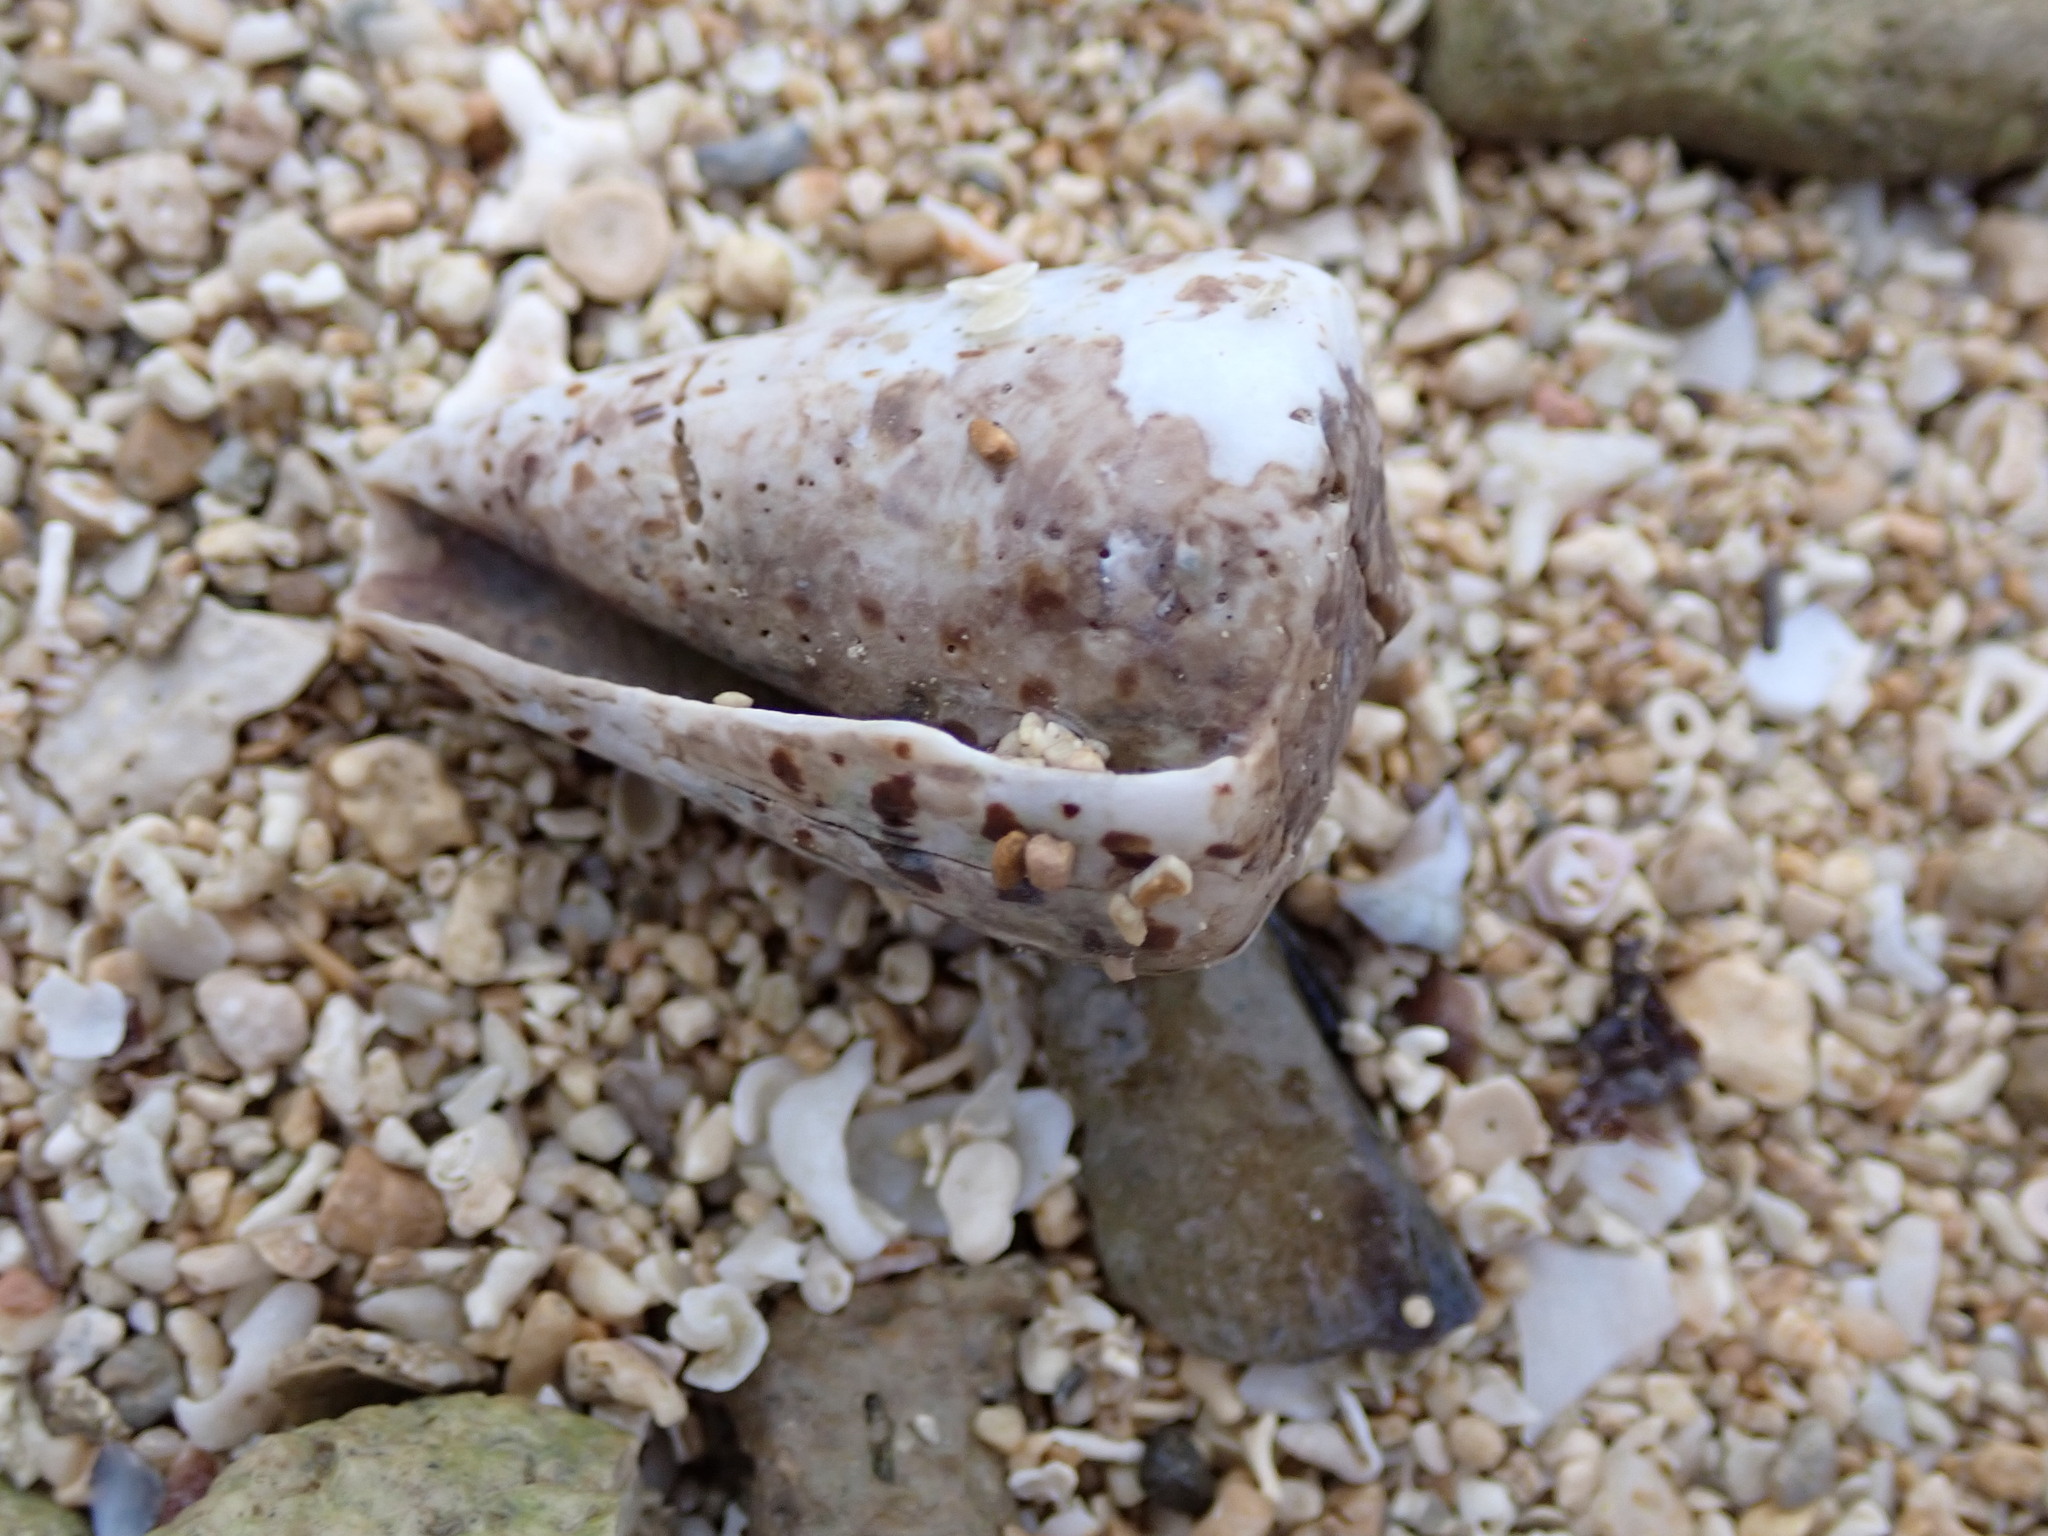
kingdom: Animalia
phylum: Mollusca
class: Gastropoda
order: Neogastropoda
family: Conidae
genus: Conus
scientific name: Conus eburneus
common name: Ivory cone
